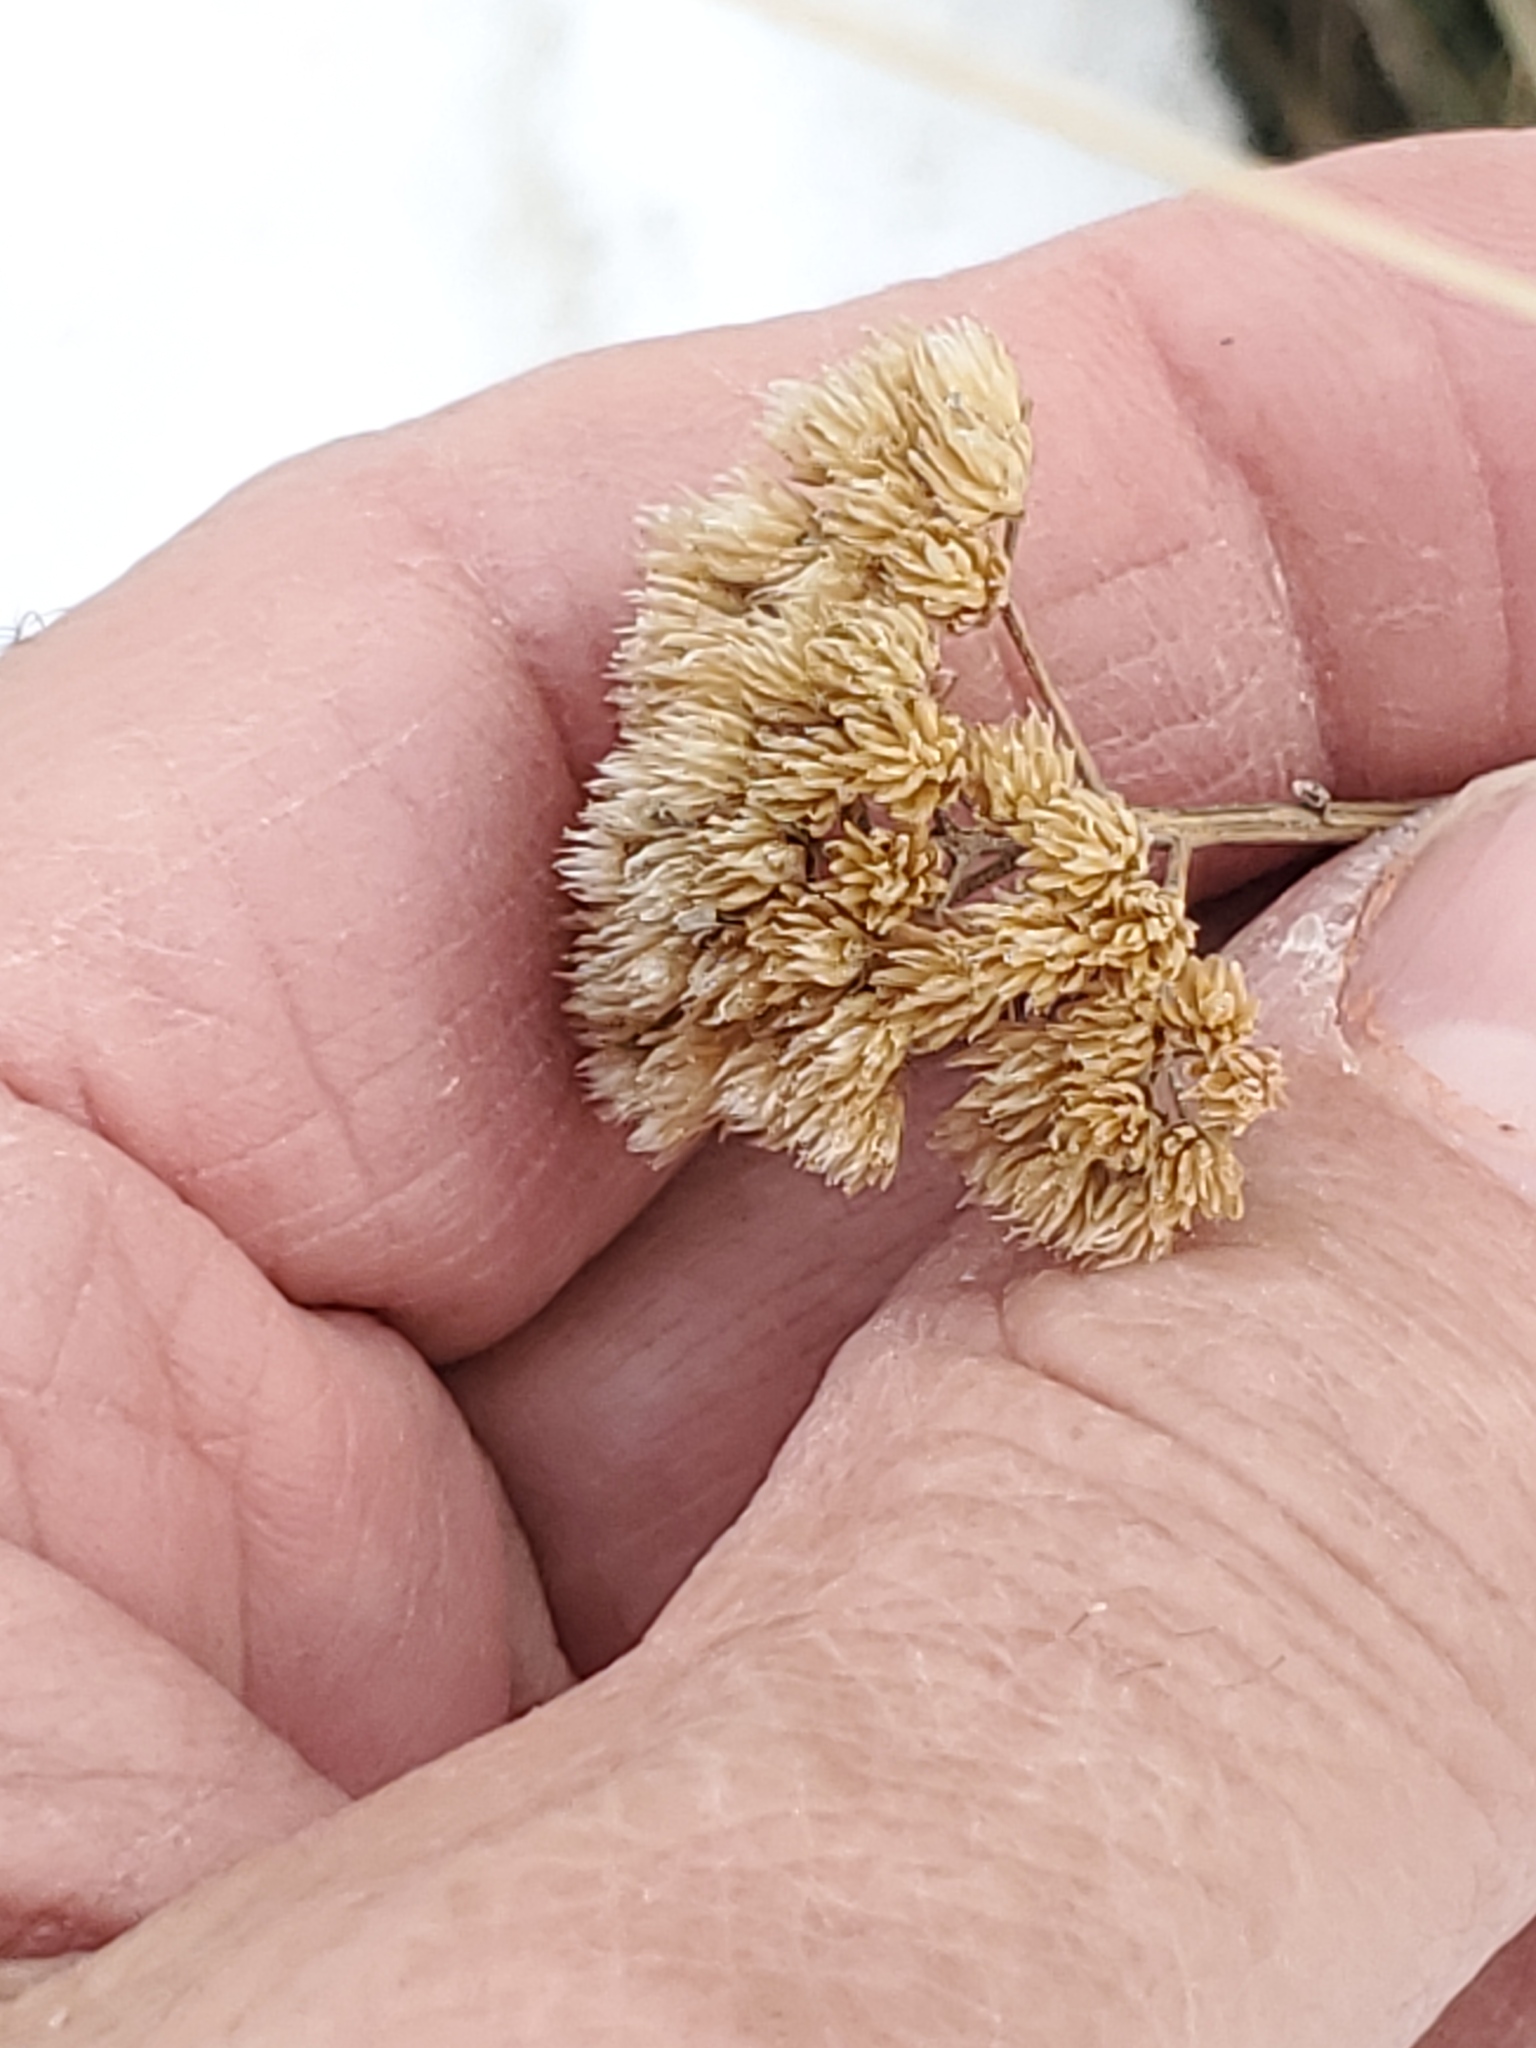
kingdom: Plantae
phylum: Tracheophyta
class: Magnoliopsida
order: Asterales
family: Asteraceae
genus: Achillea
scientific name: Achillea millefolium
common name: Yarrow
